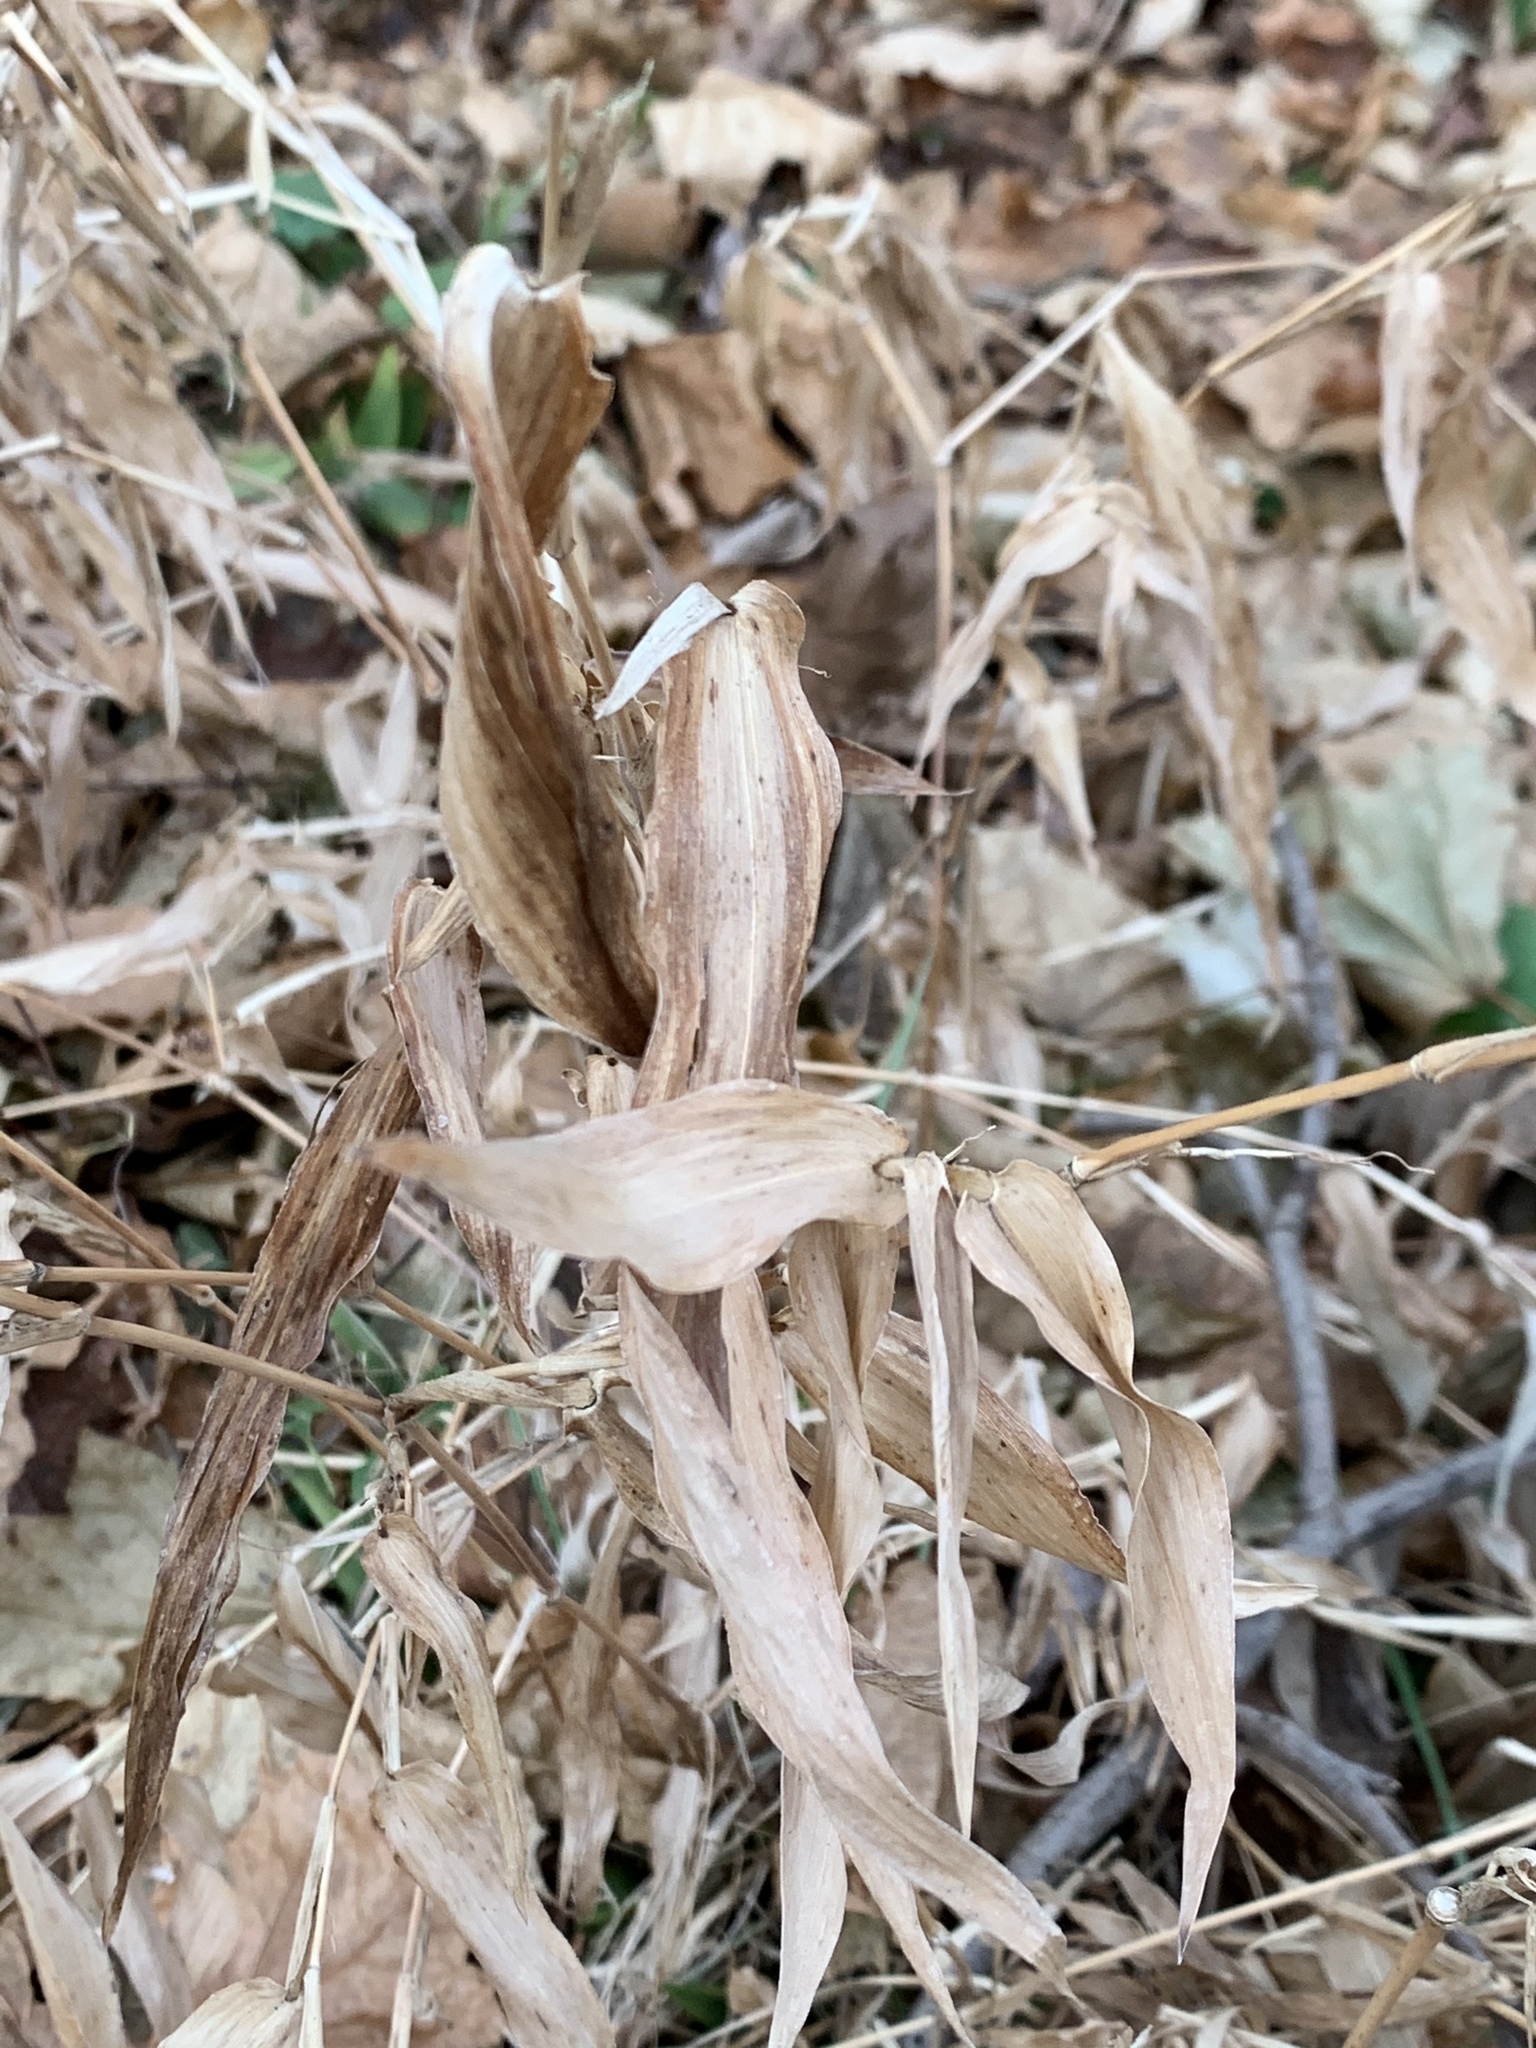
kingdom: Plantae
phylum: Tracheophyta
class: Liliopsida
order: Poales
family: Poaceae
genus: Dichanthelium
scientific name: Dichanthelium clandestinum
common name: Deer-tongue grass
